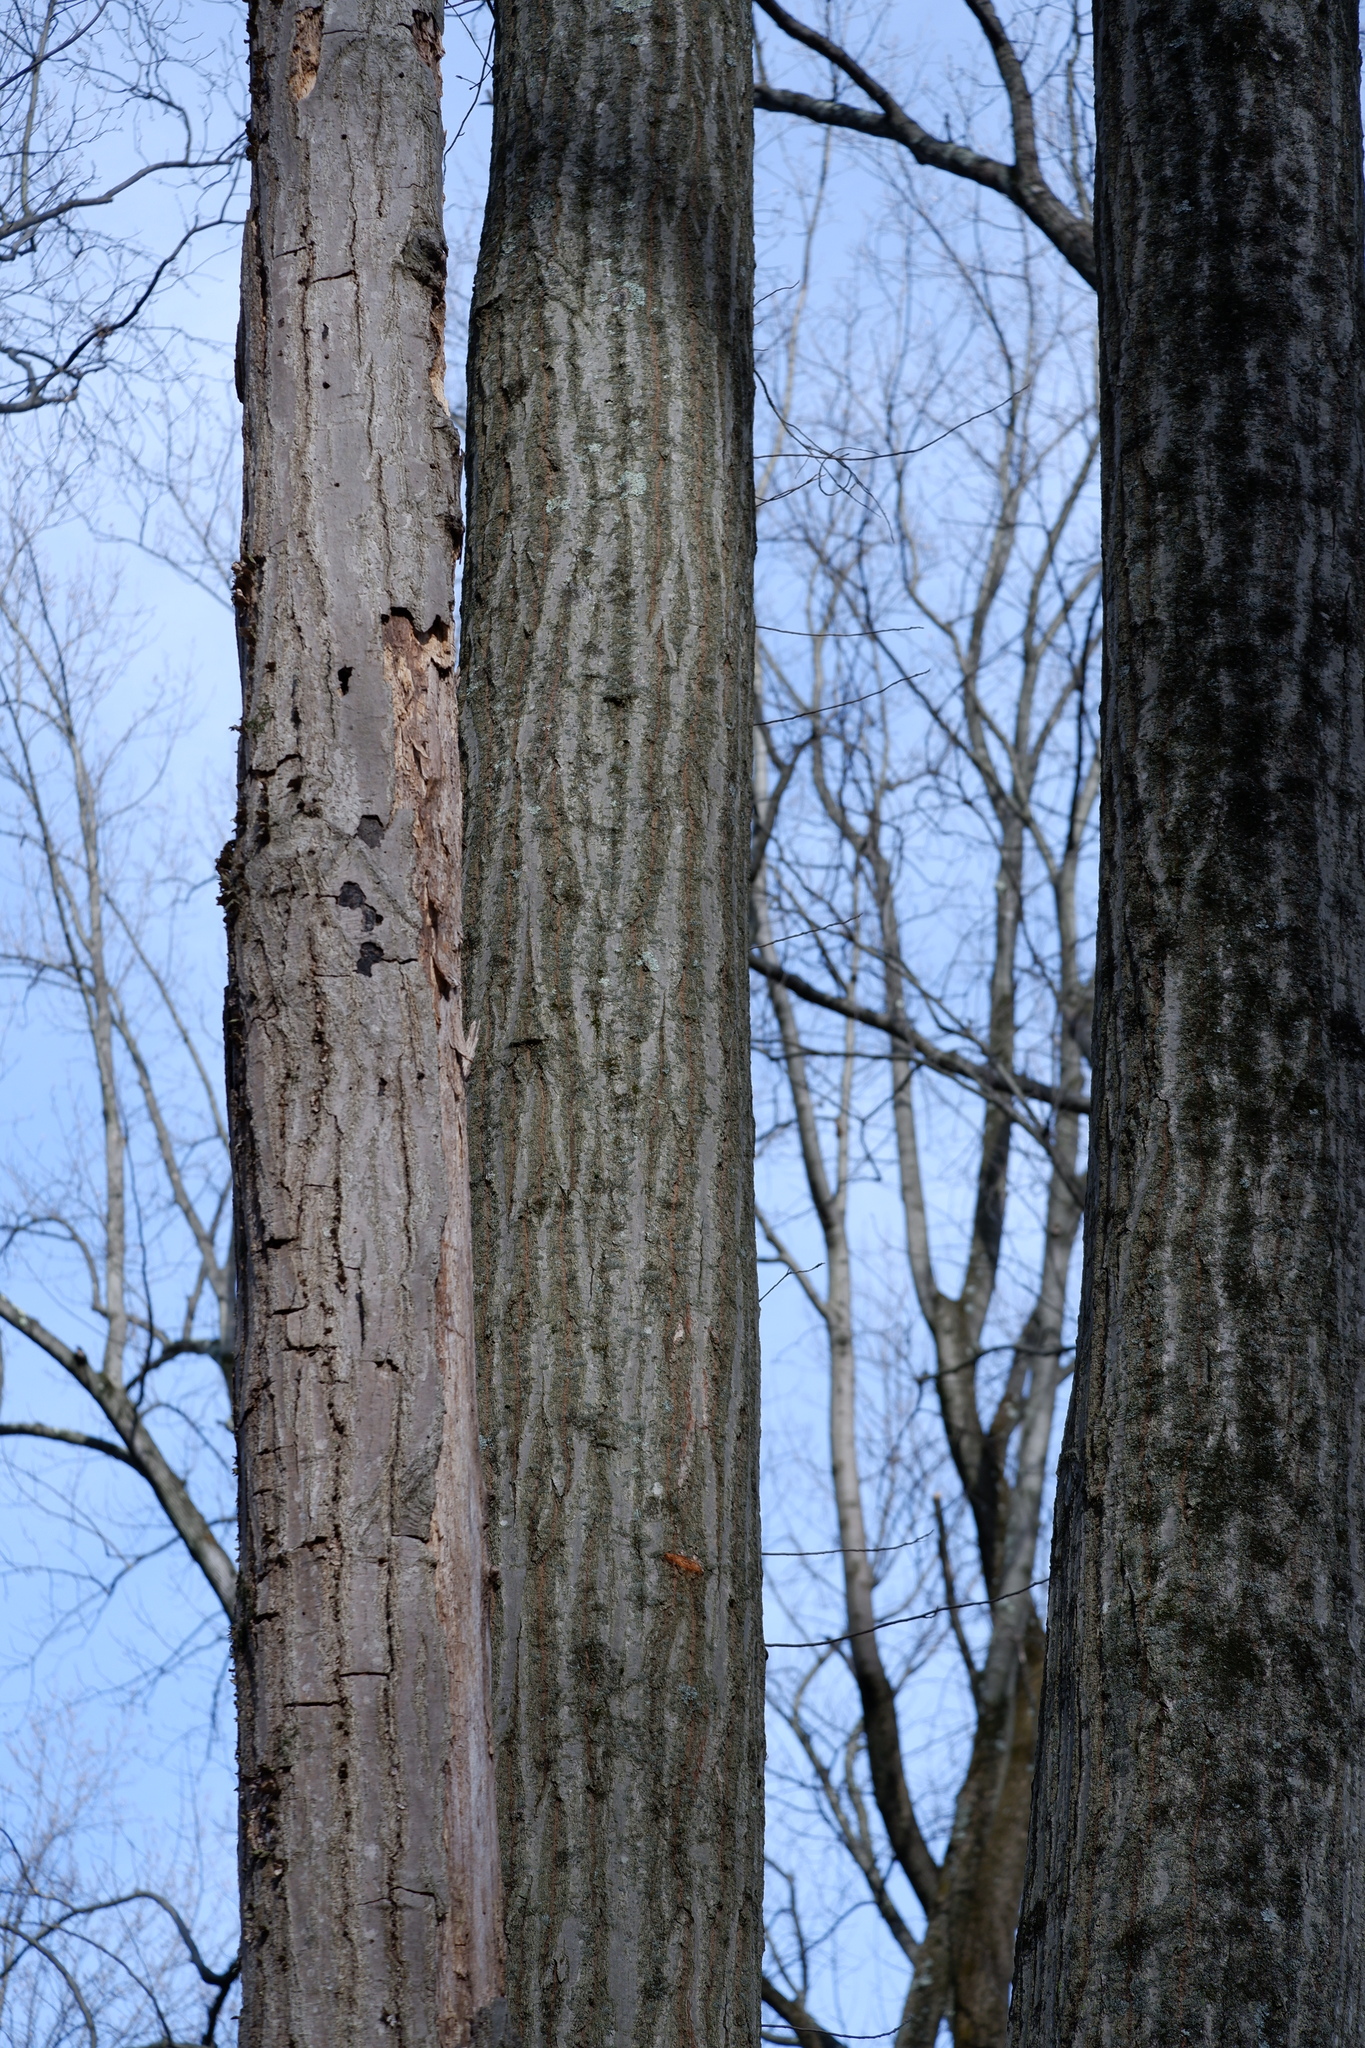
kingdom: Plantae
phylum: Tracheophyta
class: Magnoliopsida
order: Fagales
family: Fagaceae
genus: Quercus
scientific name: Quercus rubra
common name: Red oak
